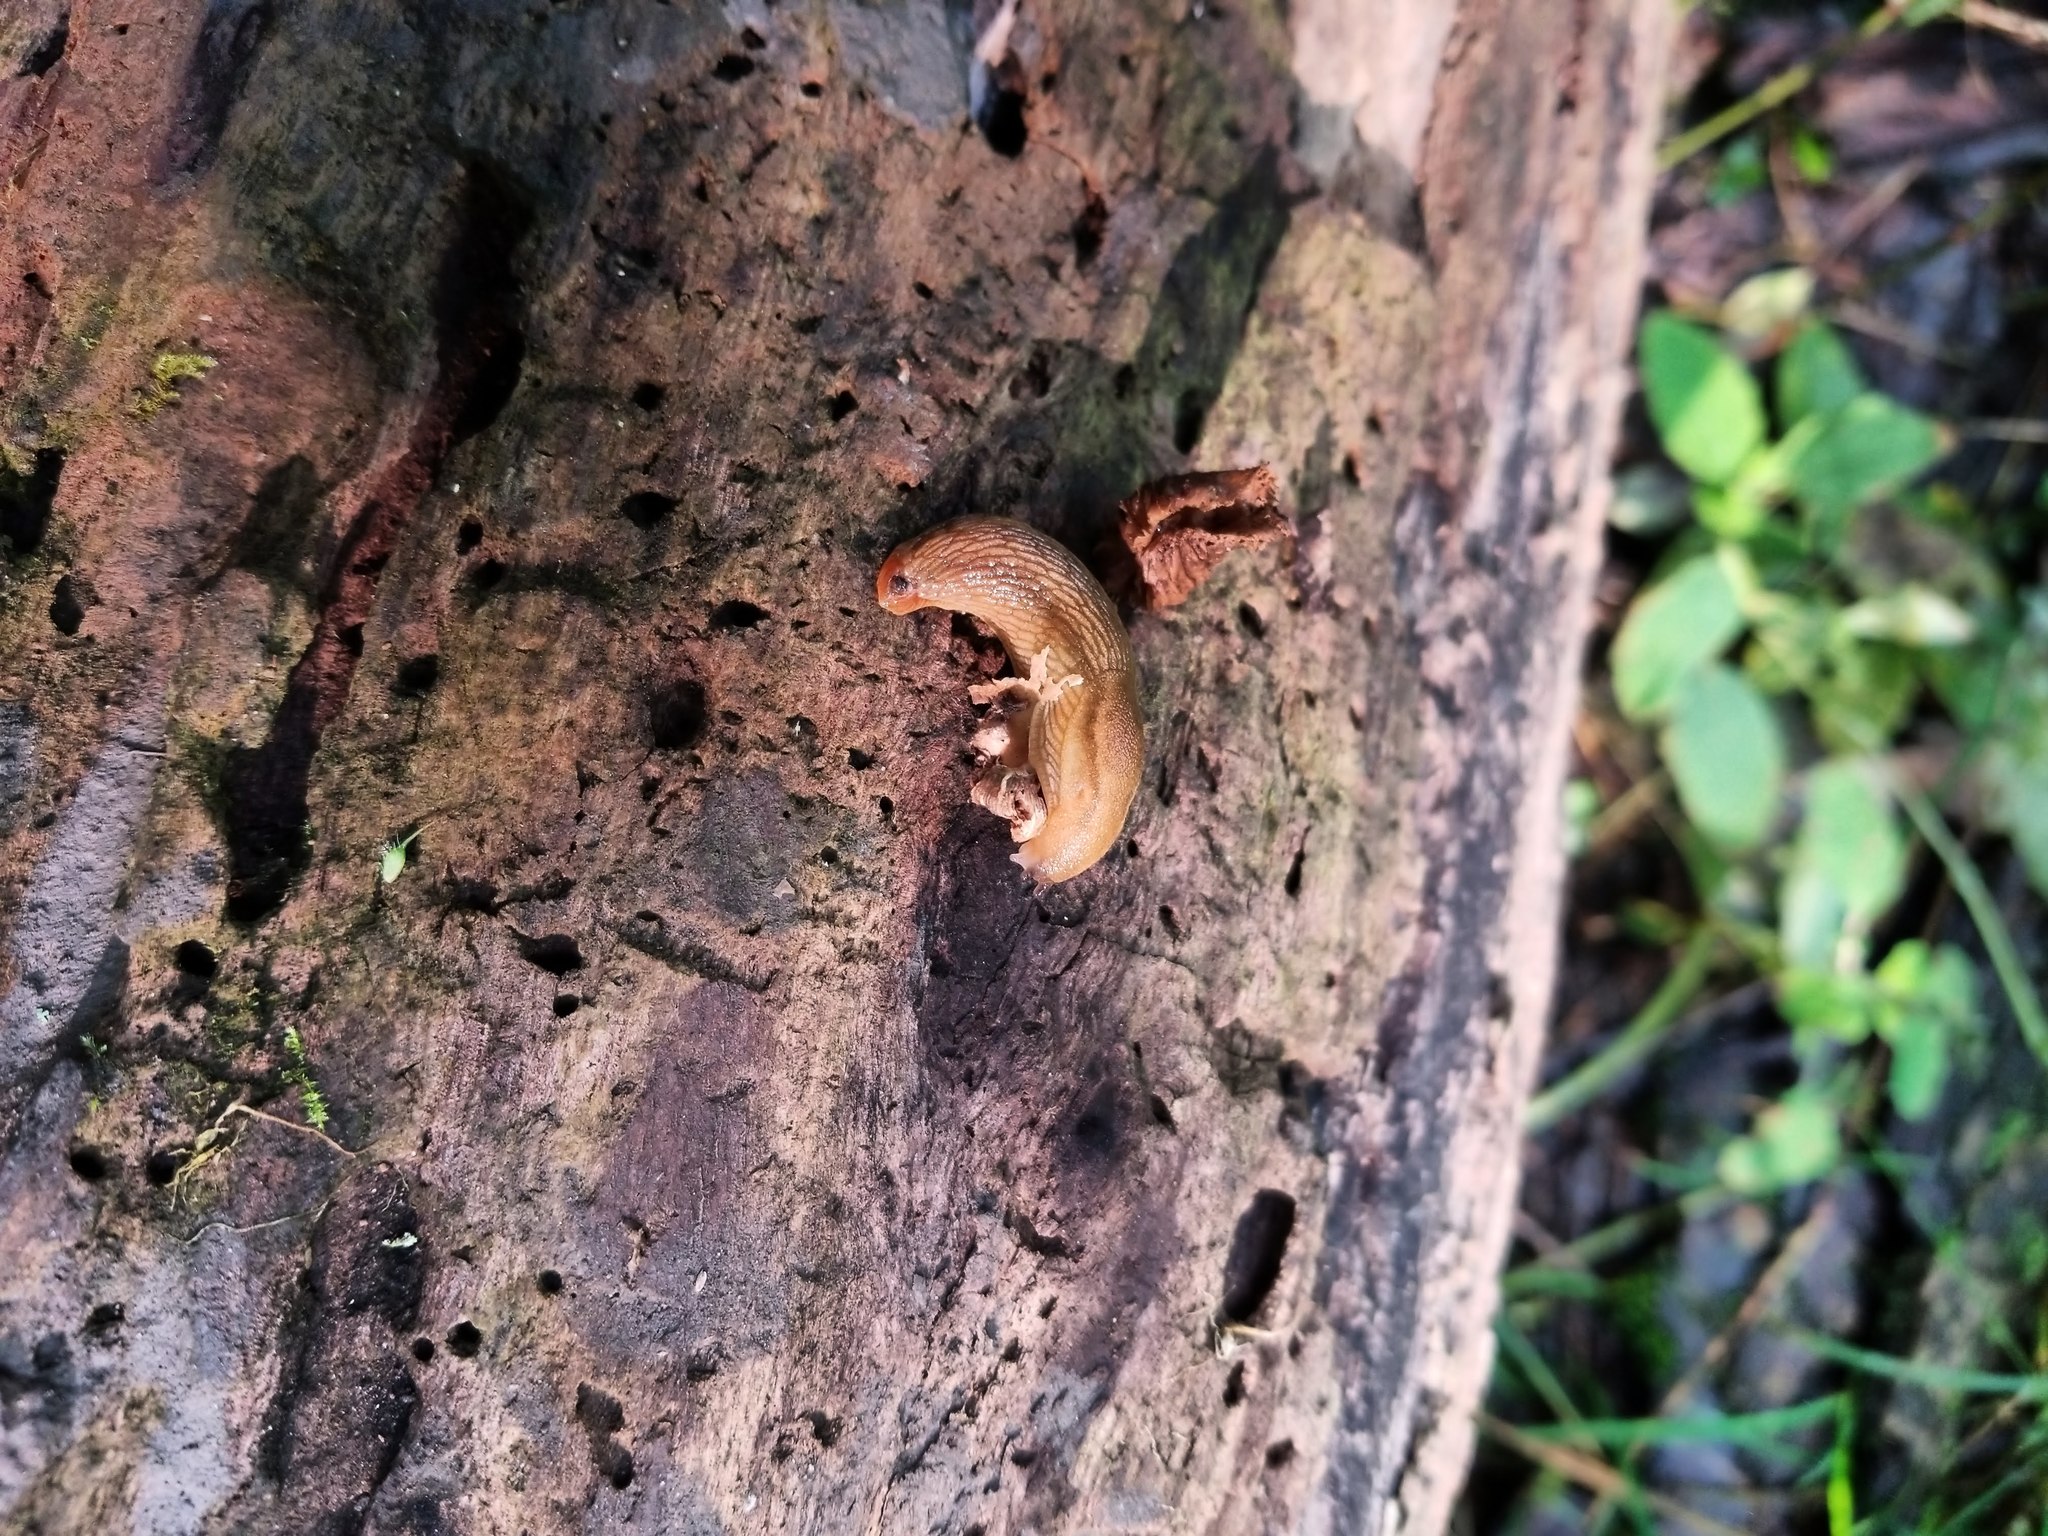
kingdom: Animalia
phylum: Mollusca
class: Gastropoda
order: Stylommatophora
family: Arionidae
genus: Arion
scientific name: Arion subfuscus
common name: Dusky arion
